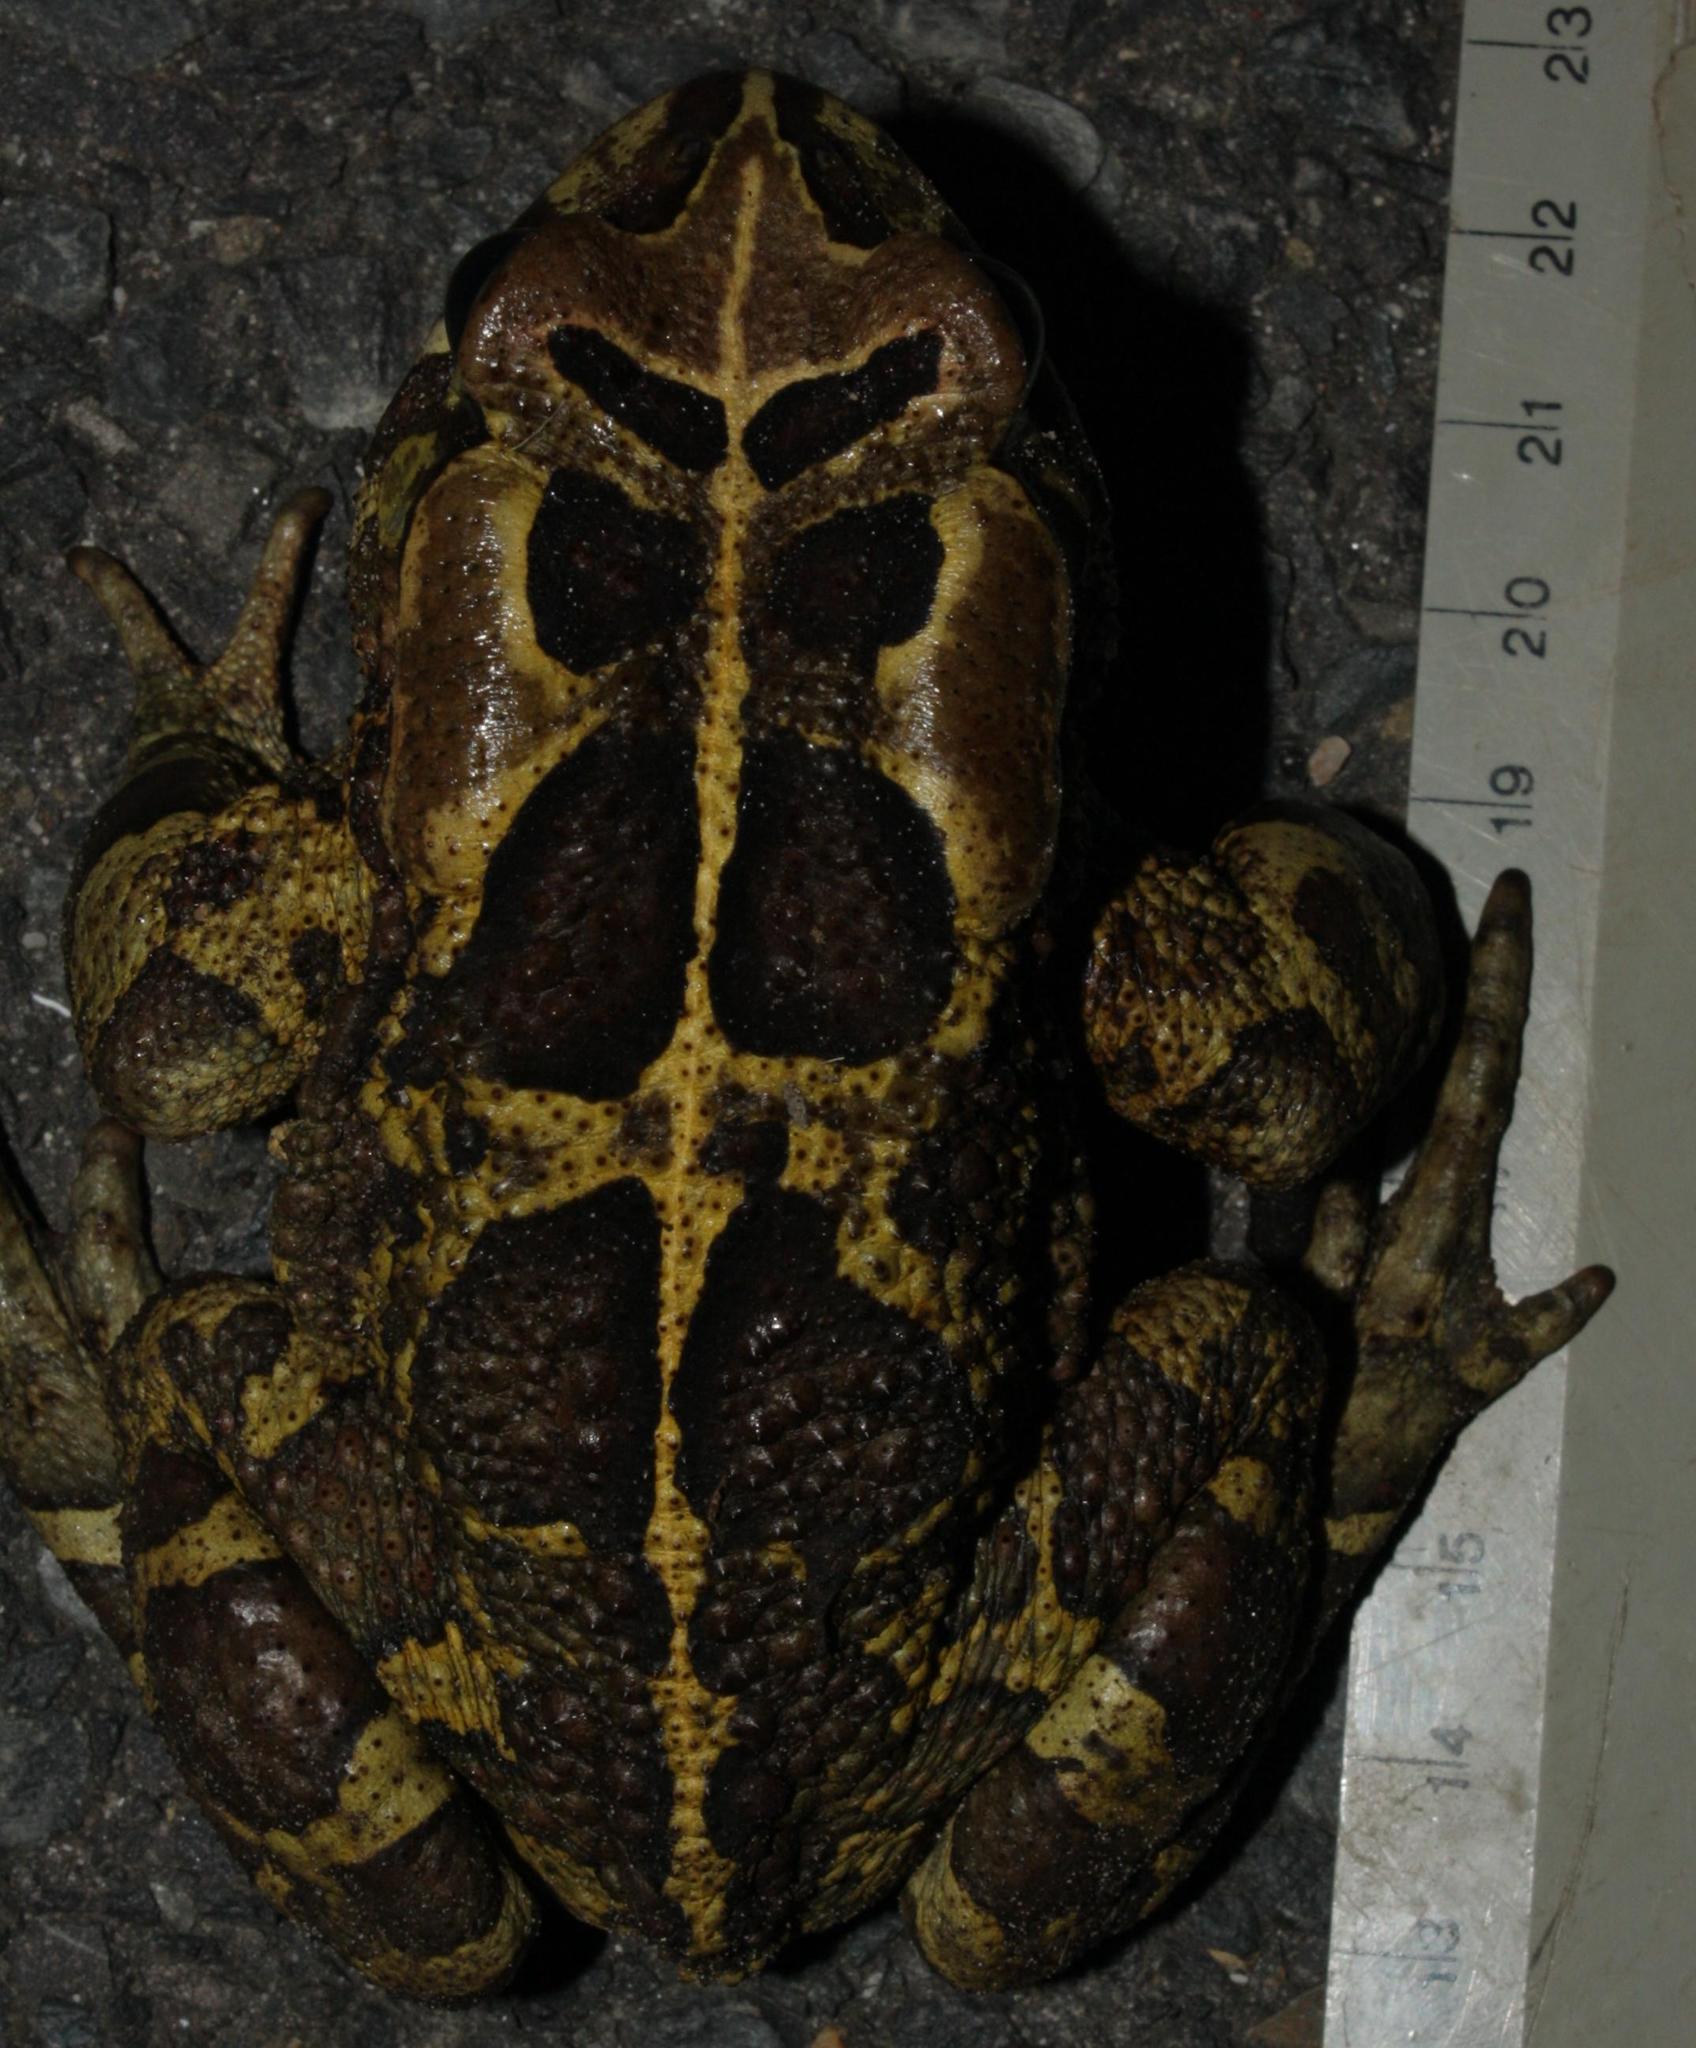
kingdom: Animalia
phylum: Chordata
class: Amphibia
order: Anura
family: Bufonidae
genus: Sclerophrys
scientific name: Sclerophrys pantherina
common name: Panther toad
